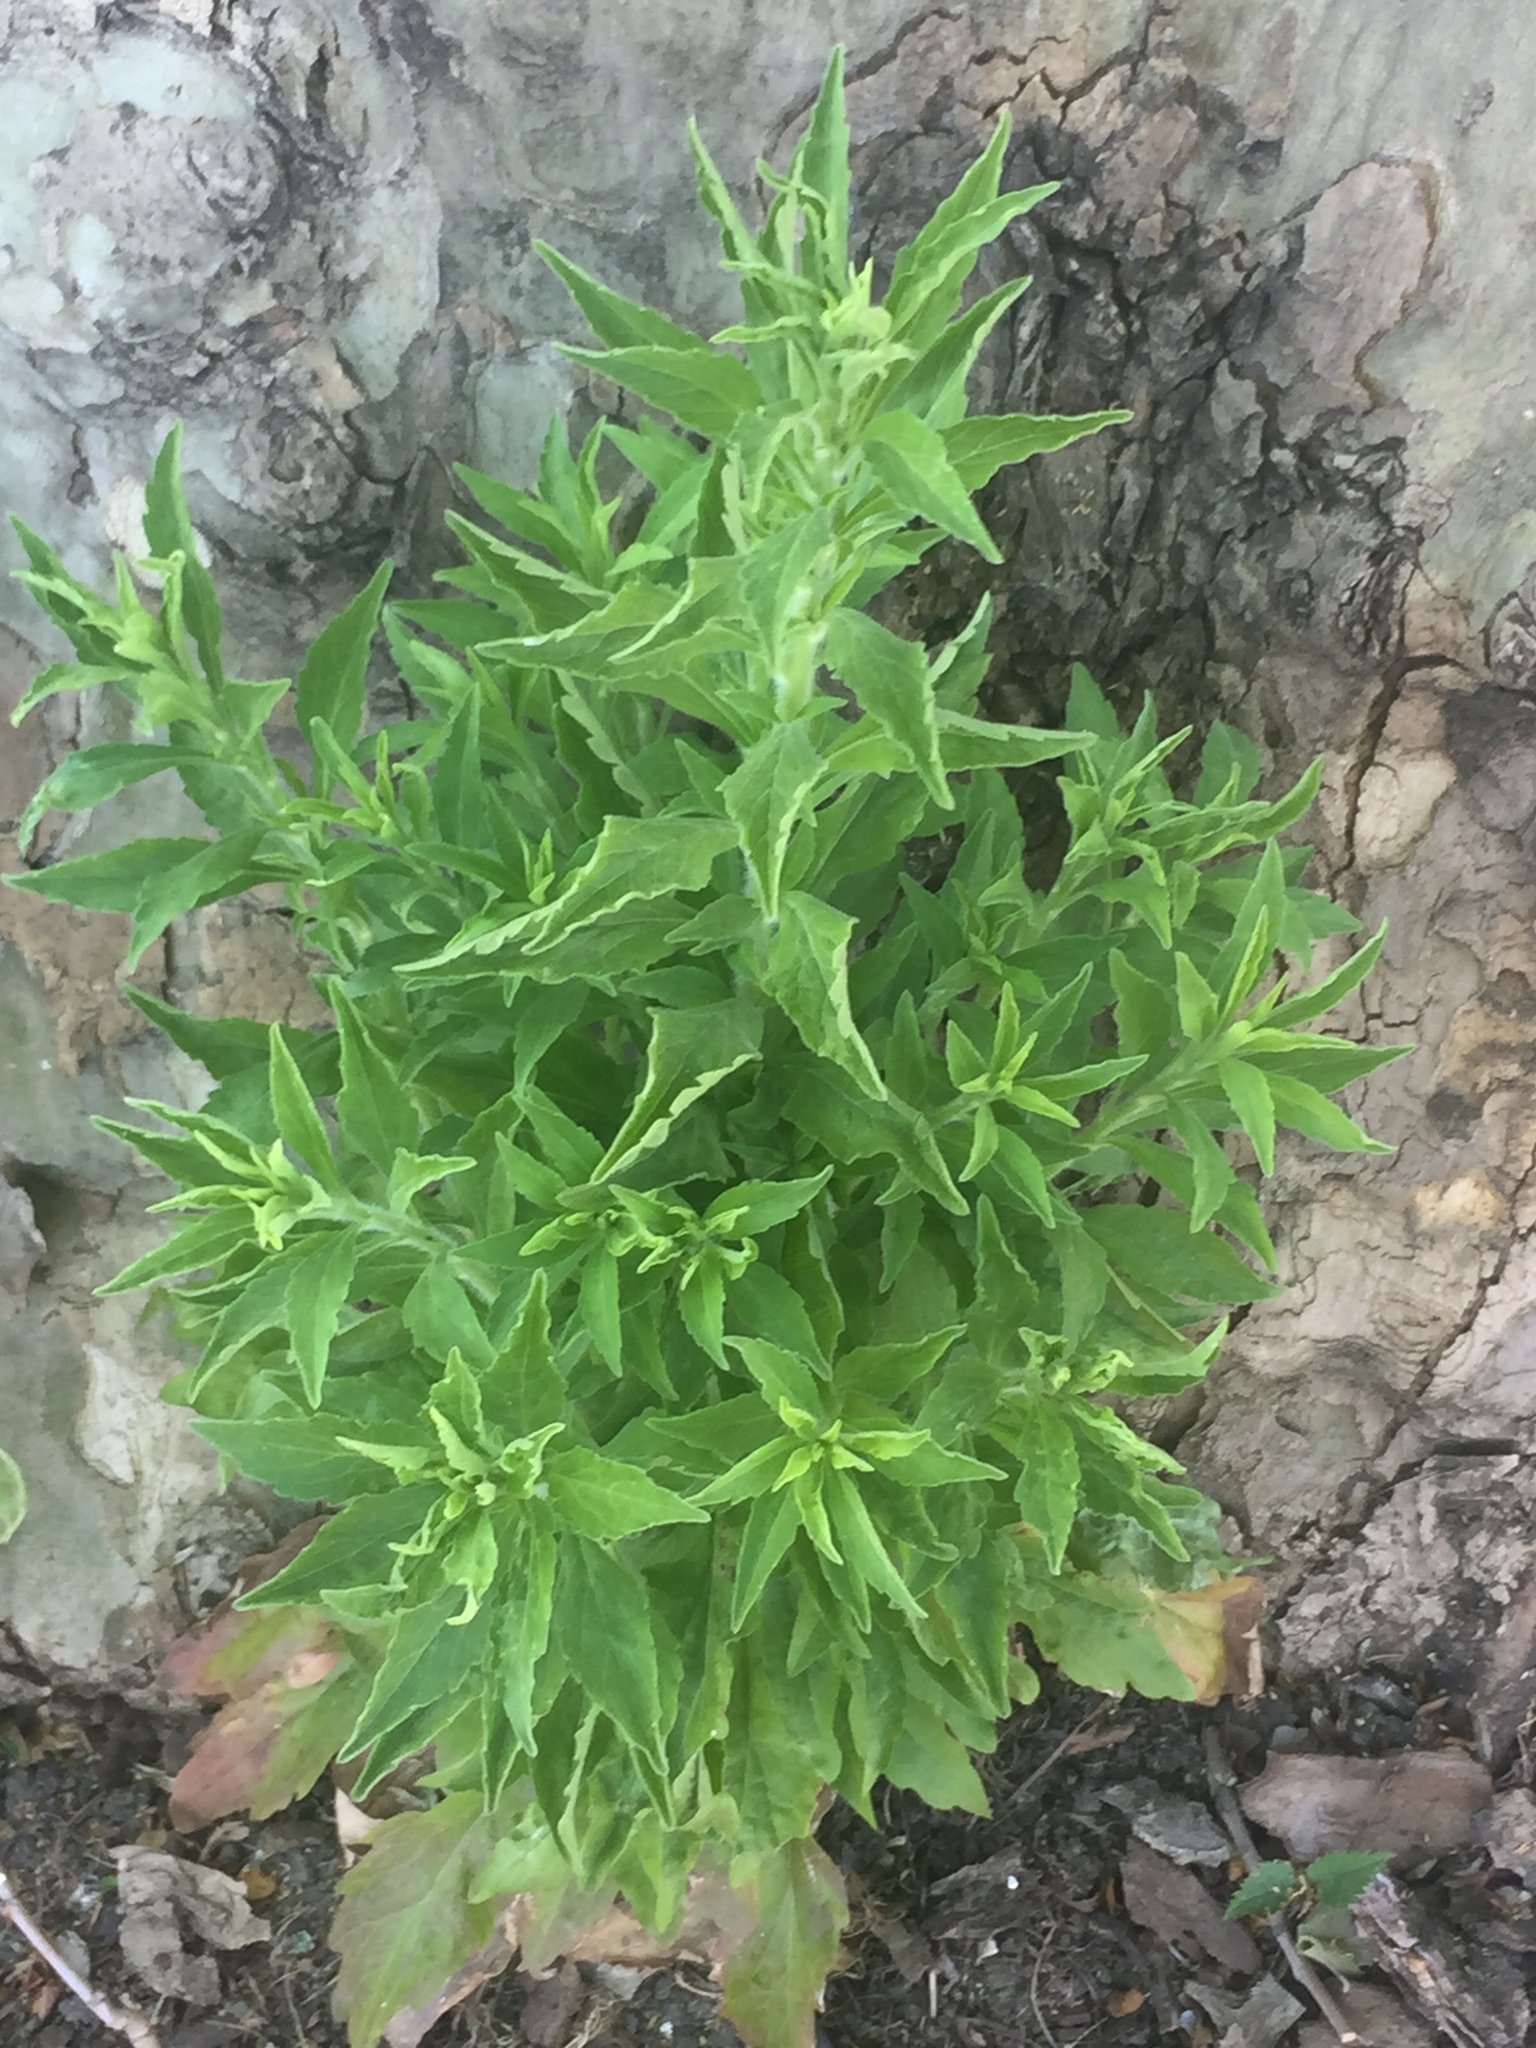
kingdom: Plantae
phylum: Tracheophyta
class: Magnoliopsida
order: Asterales
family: Asteraceae
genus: Erigeron
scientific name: Erigeron sumatrensis
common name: Daisy
